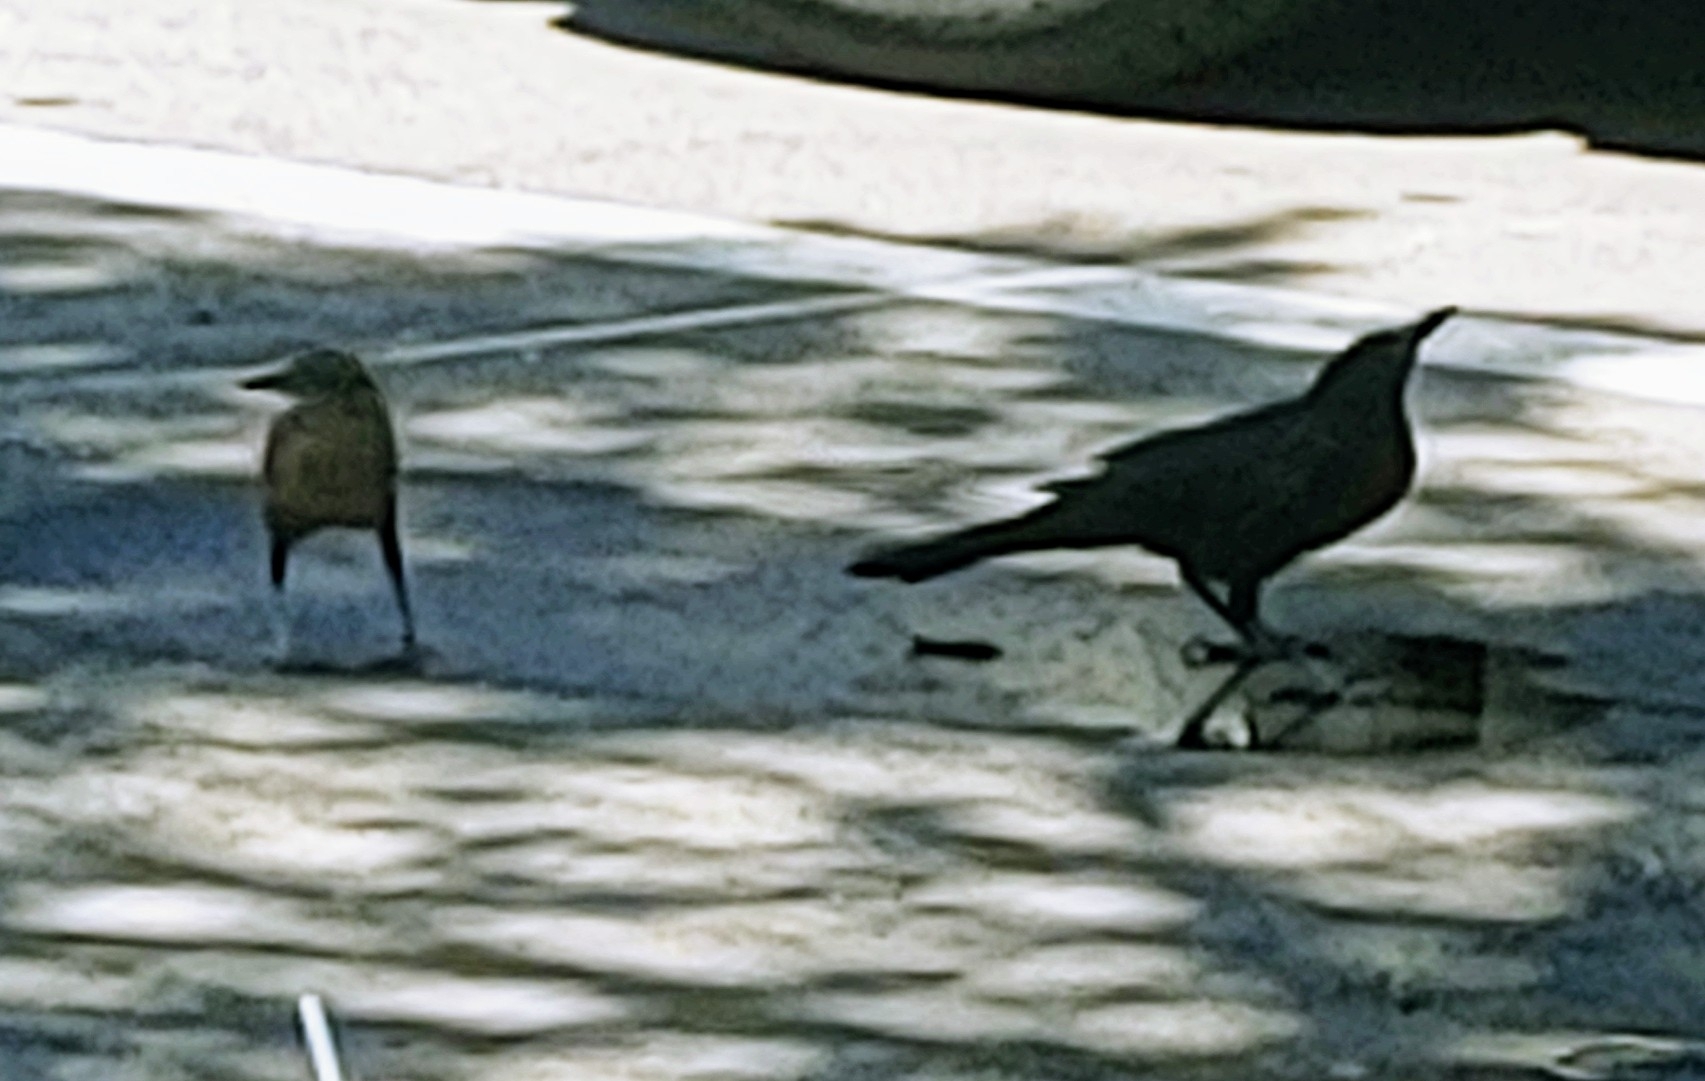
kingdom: Animalia
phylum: Chordata
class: Aves
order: Passeriformes
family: Icteridae
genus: Quiscalus
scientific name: Quiscalus major
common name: Boat-tailed grackle
